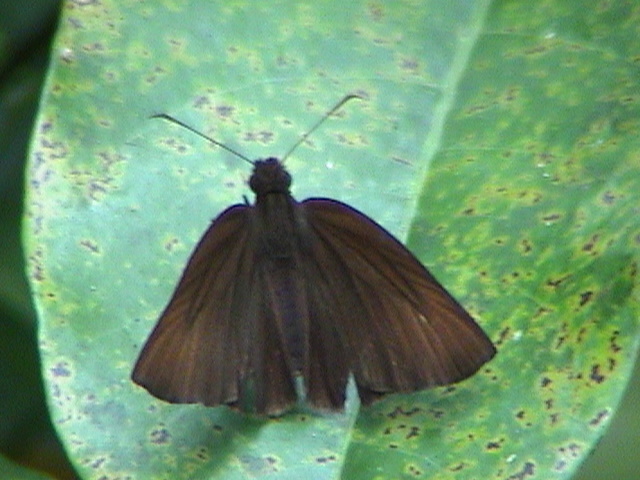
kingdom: Animalia
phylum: Arthropoda
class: Insecta
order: Lepidoptera
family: Hesperiidae
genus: Psolos
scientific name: Psolos fuligo
